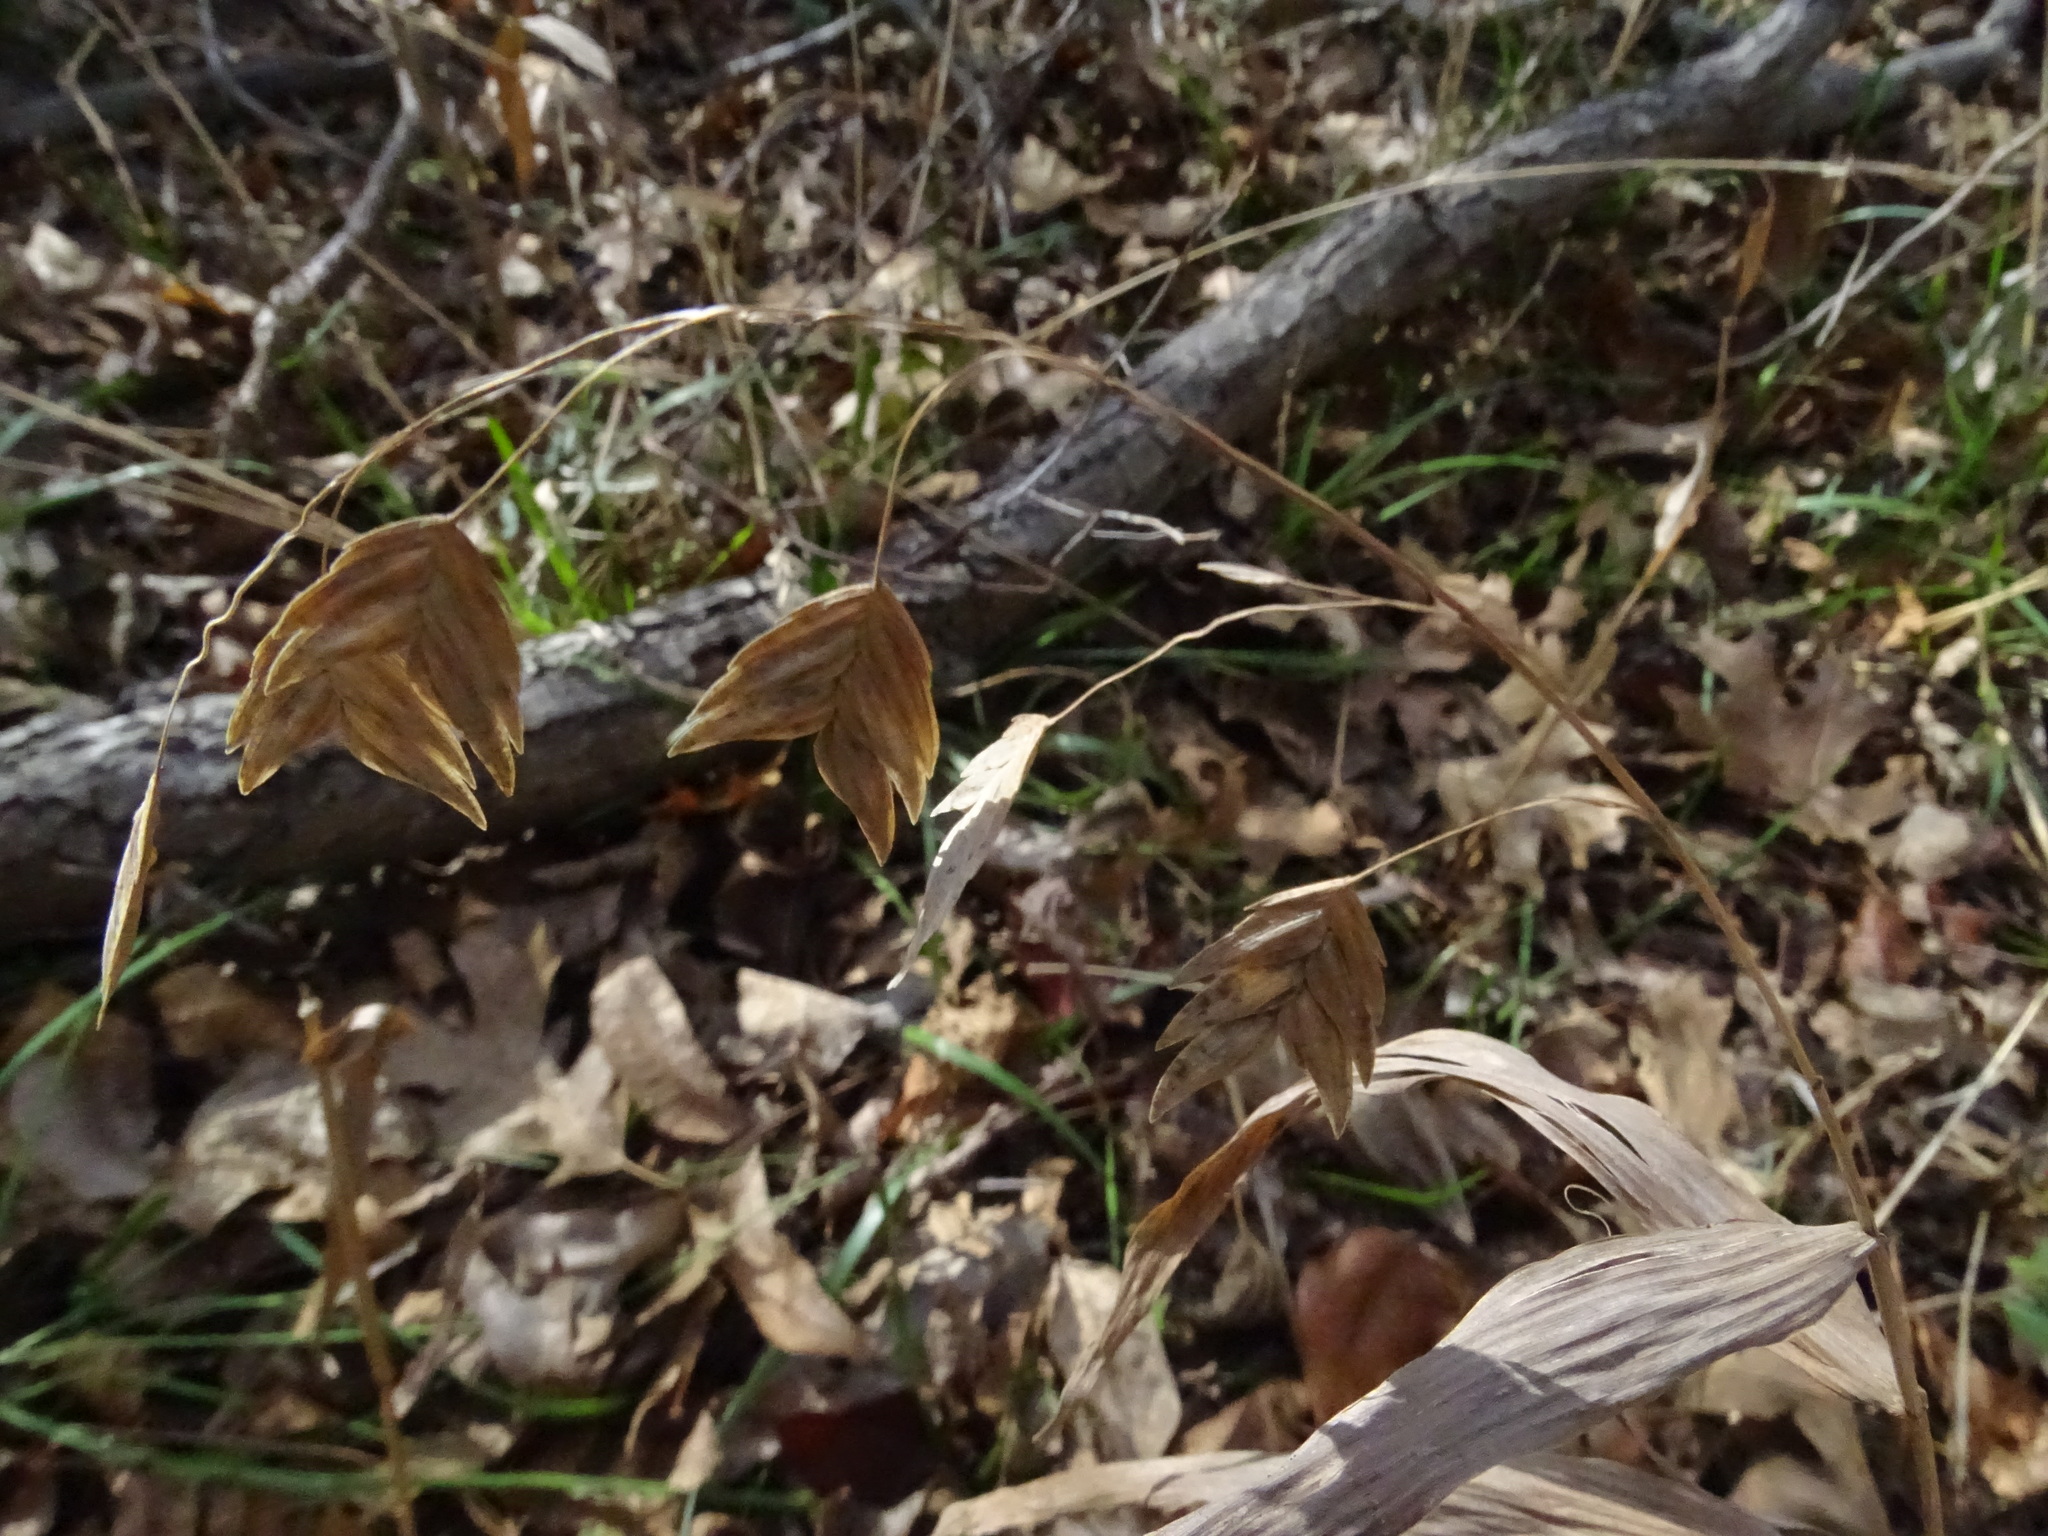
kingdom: Plantae
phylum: Tracheophyta
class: Liliopsida
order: Poales
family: Poaceae
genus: Chasmanthium
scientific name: Chasmanthium latifolium
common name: Broad-leaved chasmanthium
